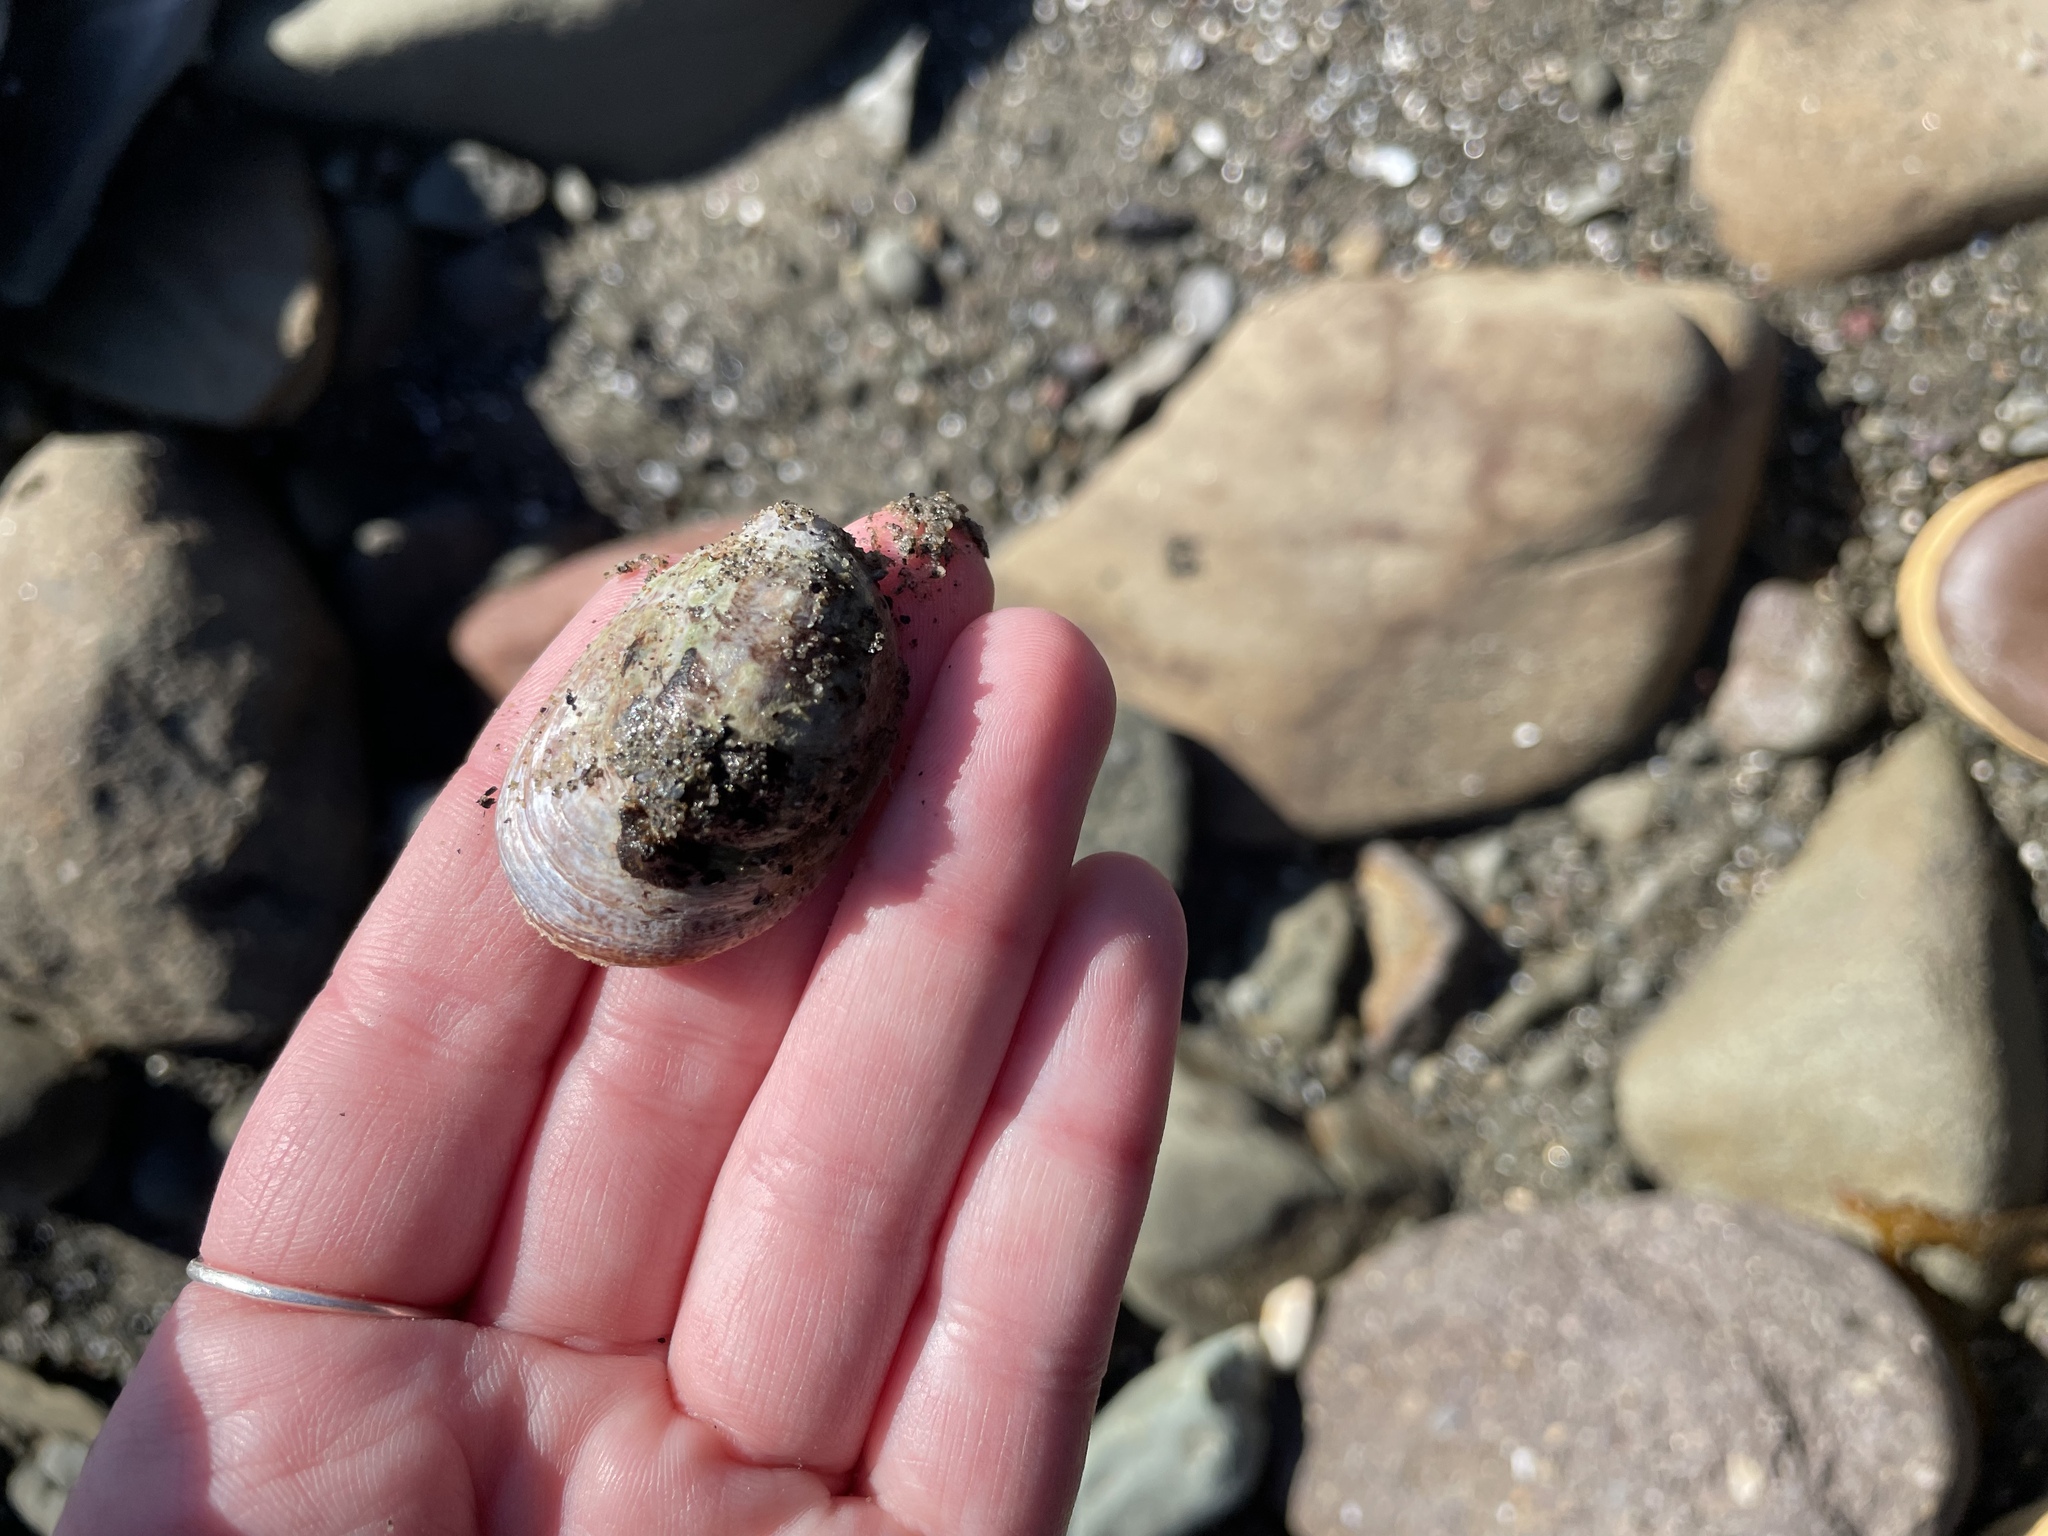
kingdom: Animalia
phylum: Mollusca
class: Gastropoda
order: Littorinimorpha
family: Calyptraeidae
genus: Crepidula
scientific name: Crepidula fornicata
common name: Slipper limpet
